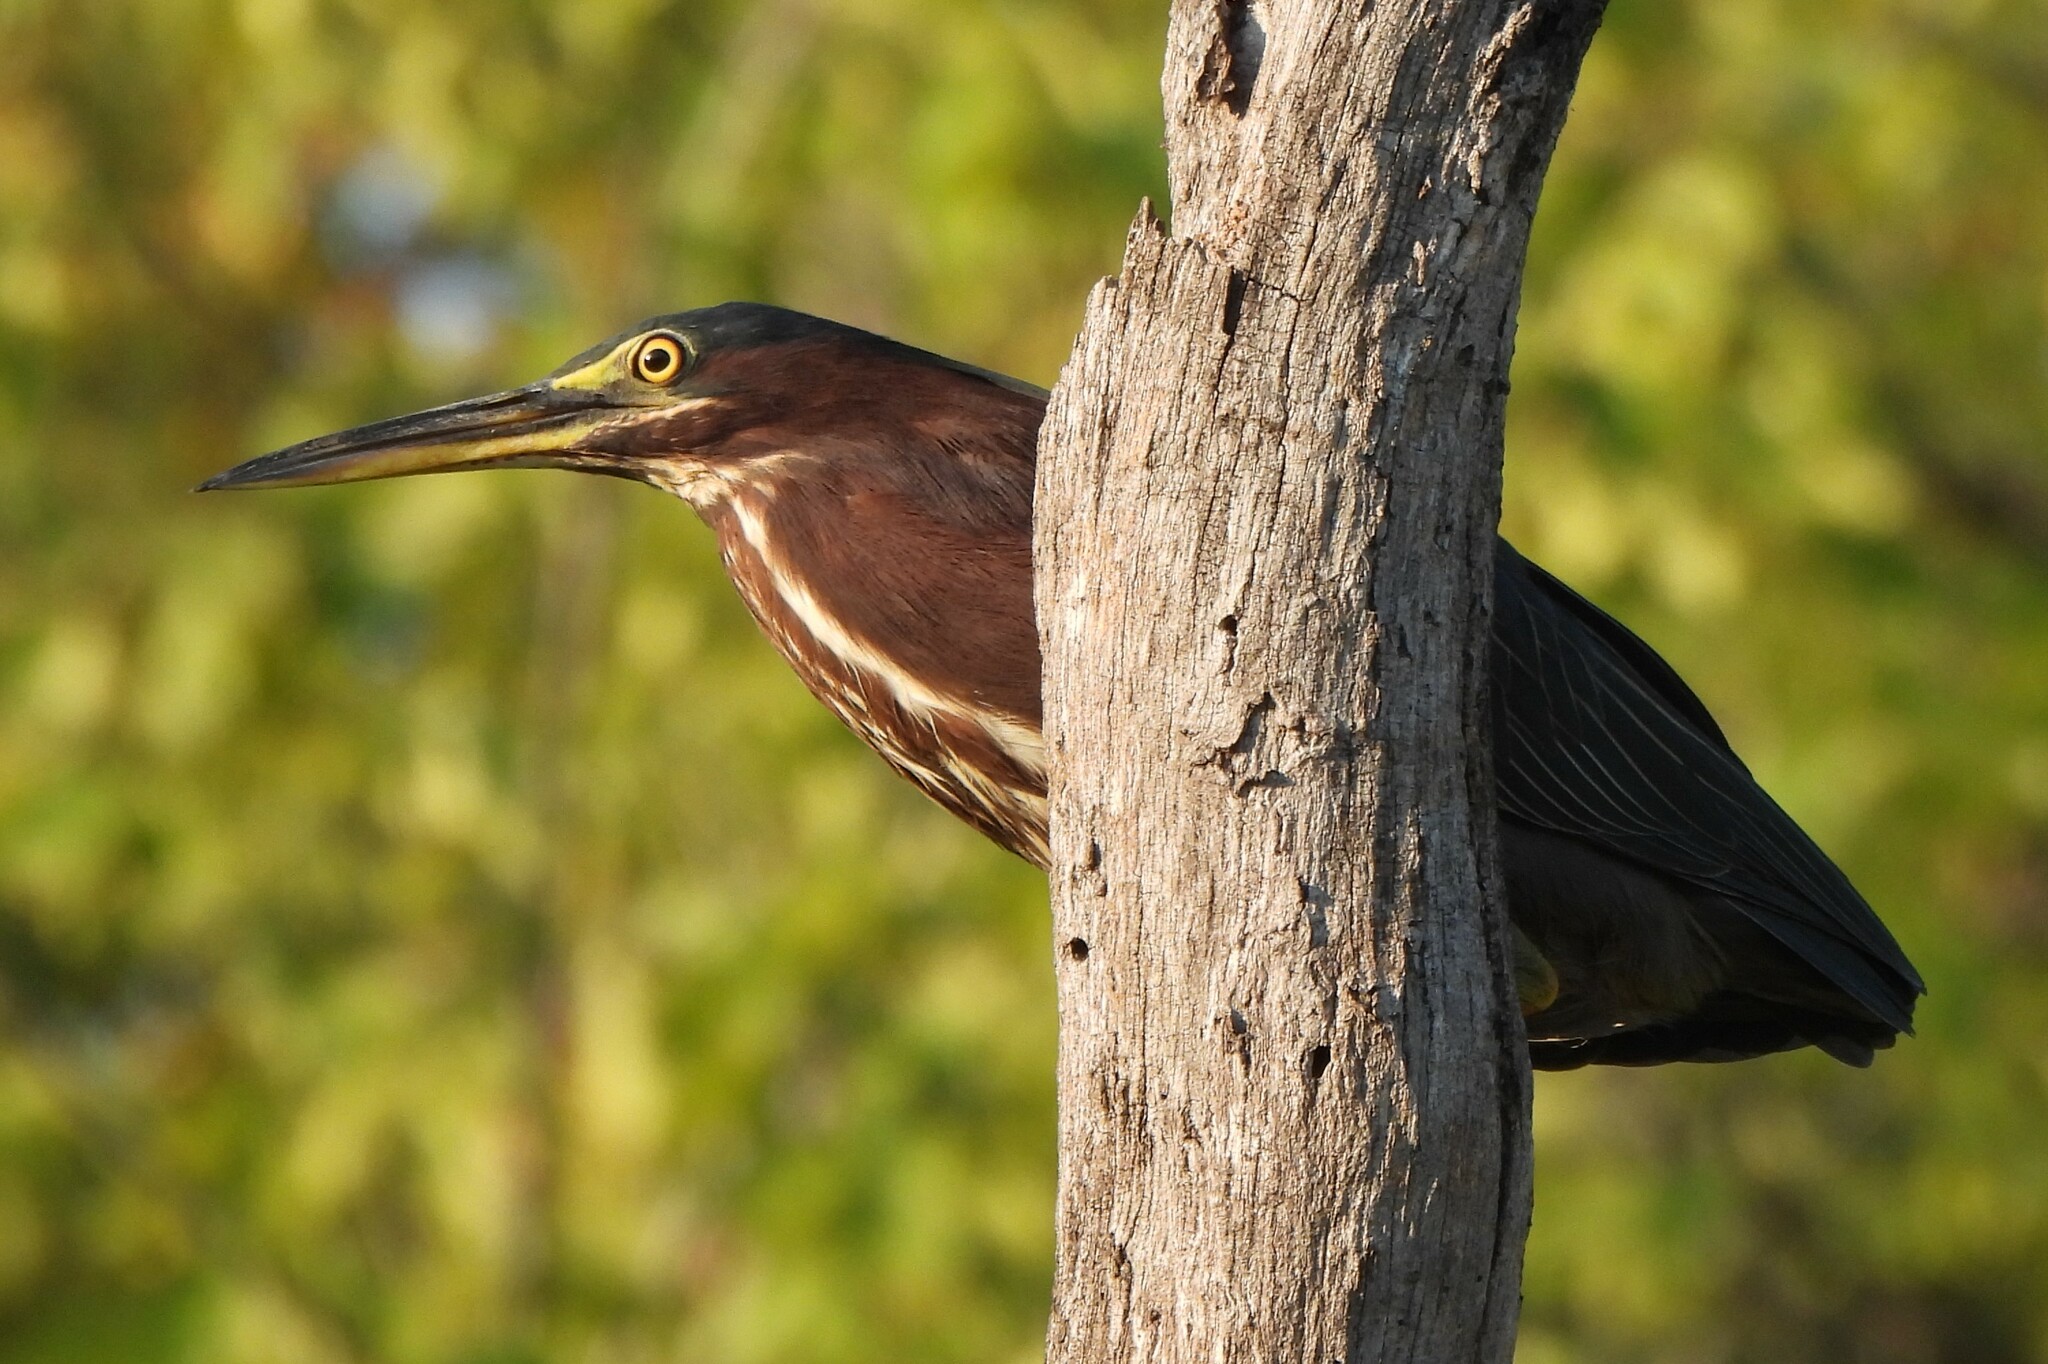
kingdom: Animalia
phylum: Chordata
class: Aves
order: Pelecaniformes
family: Ardeidae
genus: Butorides
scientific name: Butorides virescens
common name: Green heron
